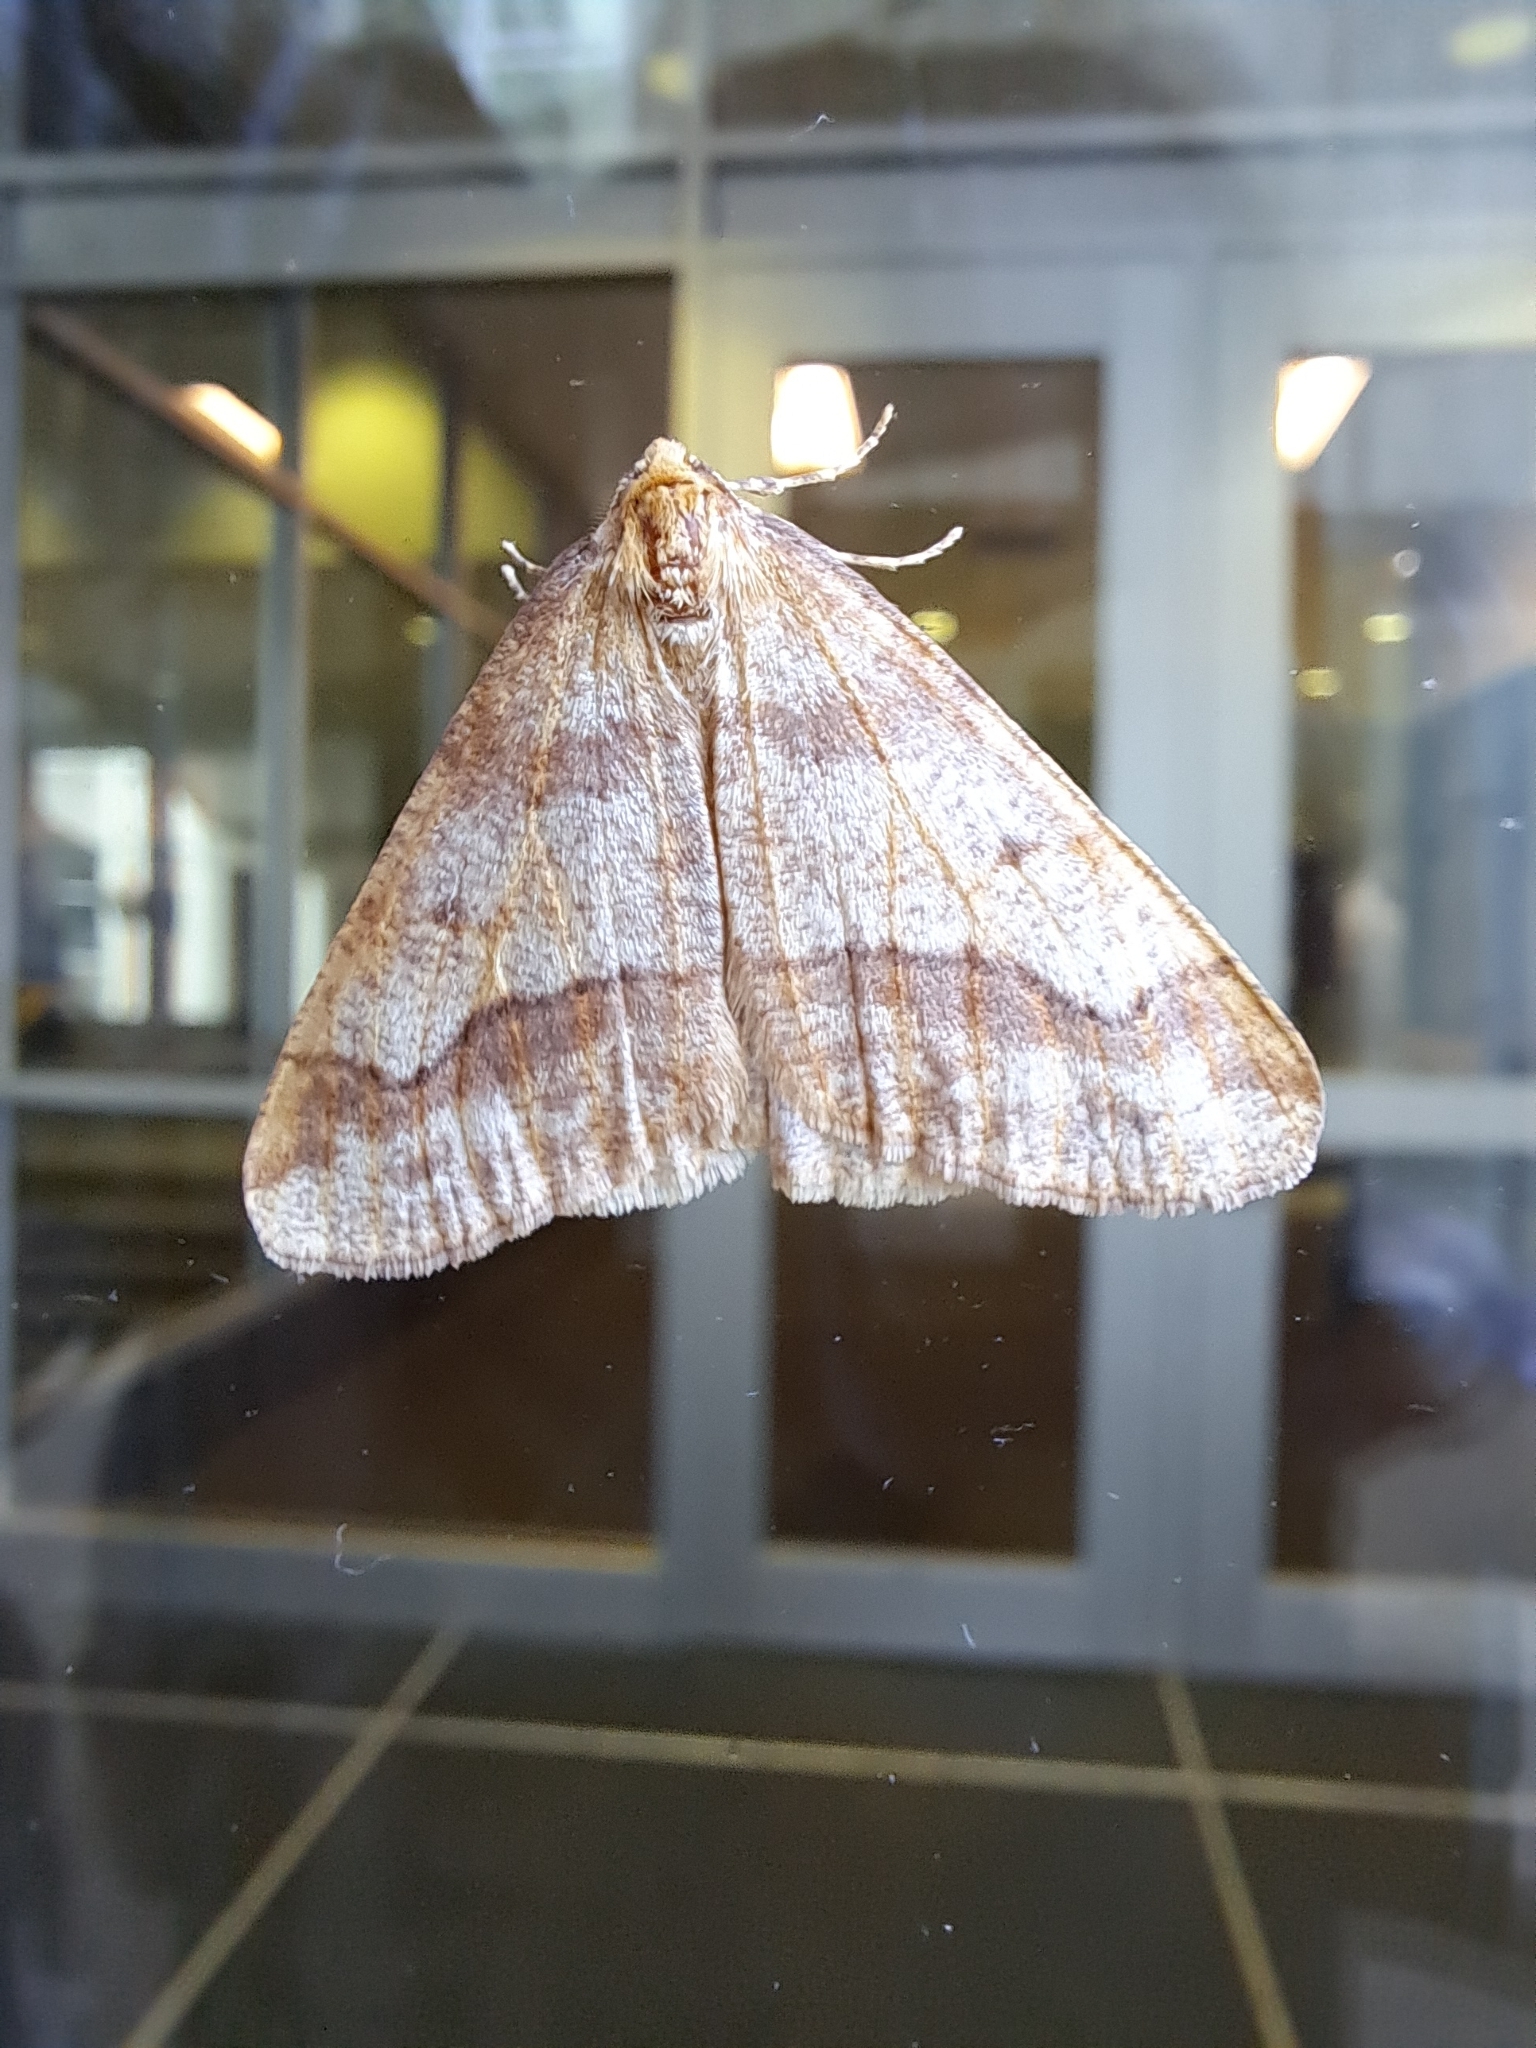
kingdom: Animalia
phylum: Arthropoda
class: Insecta
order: Lepidoptera
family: Geometridae
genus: Erannis
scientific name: Erannis tiliaria
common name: Linden looper
